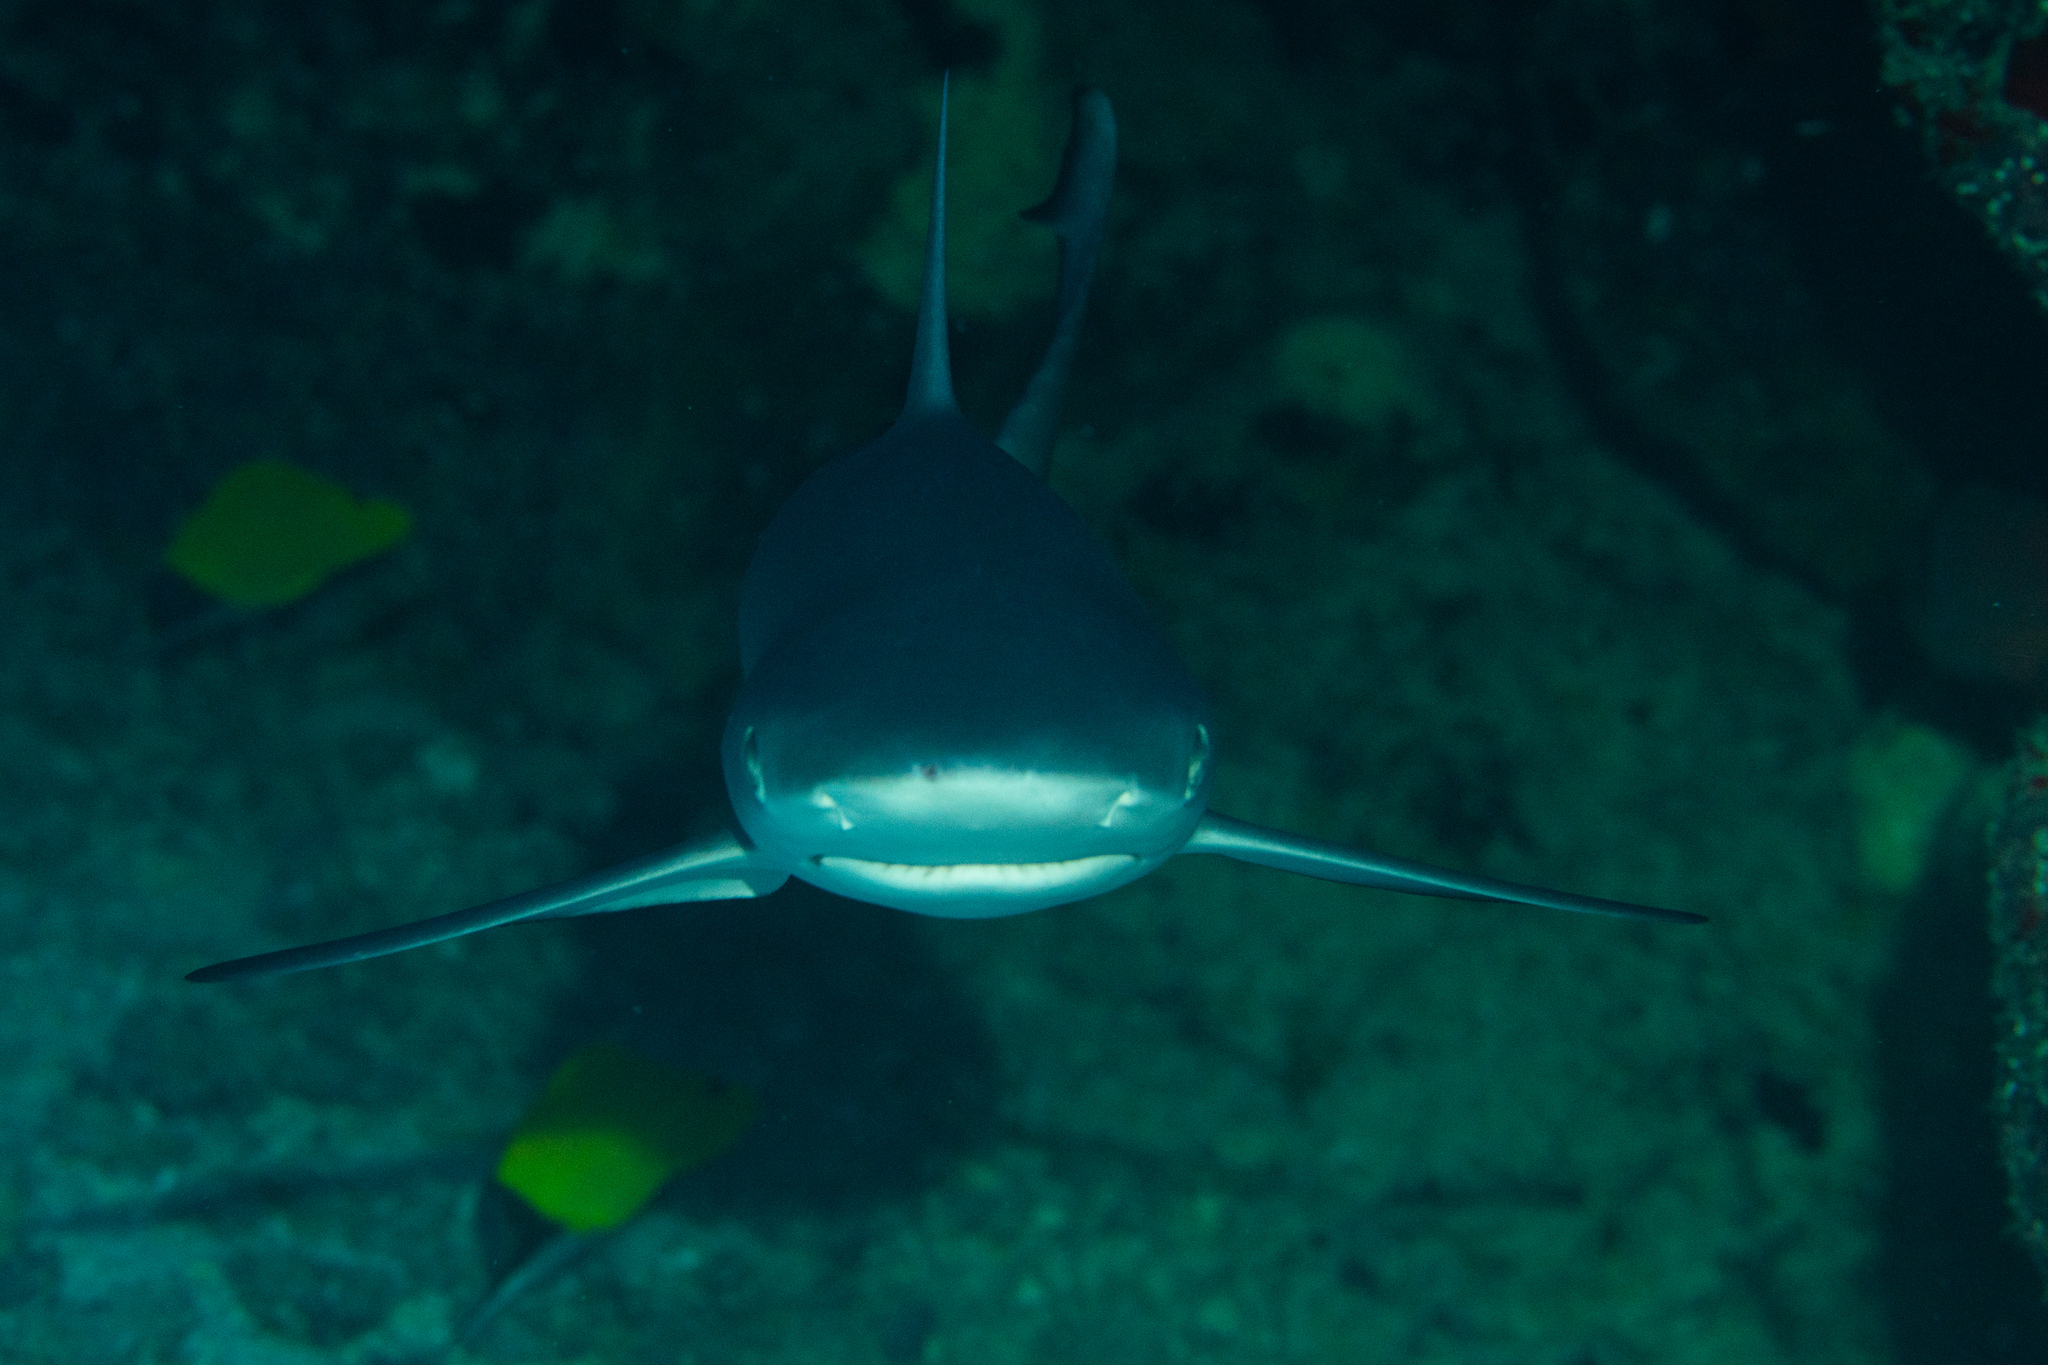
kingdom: Animalia
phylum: Chordata
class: Elasmobranchii
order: Carcharhiniformes
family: Carcharhinidae
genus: Carcharhinus
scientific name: Carcharhinus amblyrhynchos
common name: Grey reef shark
